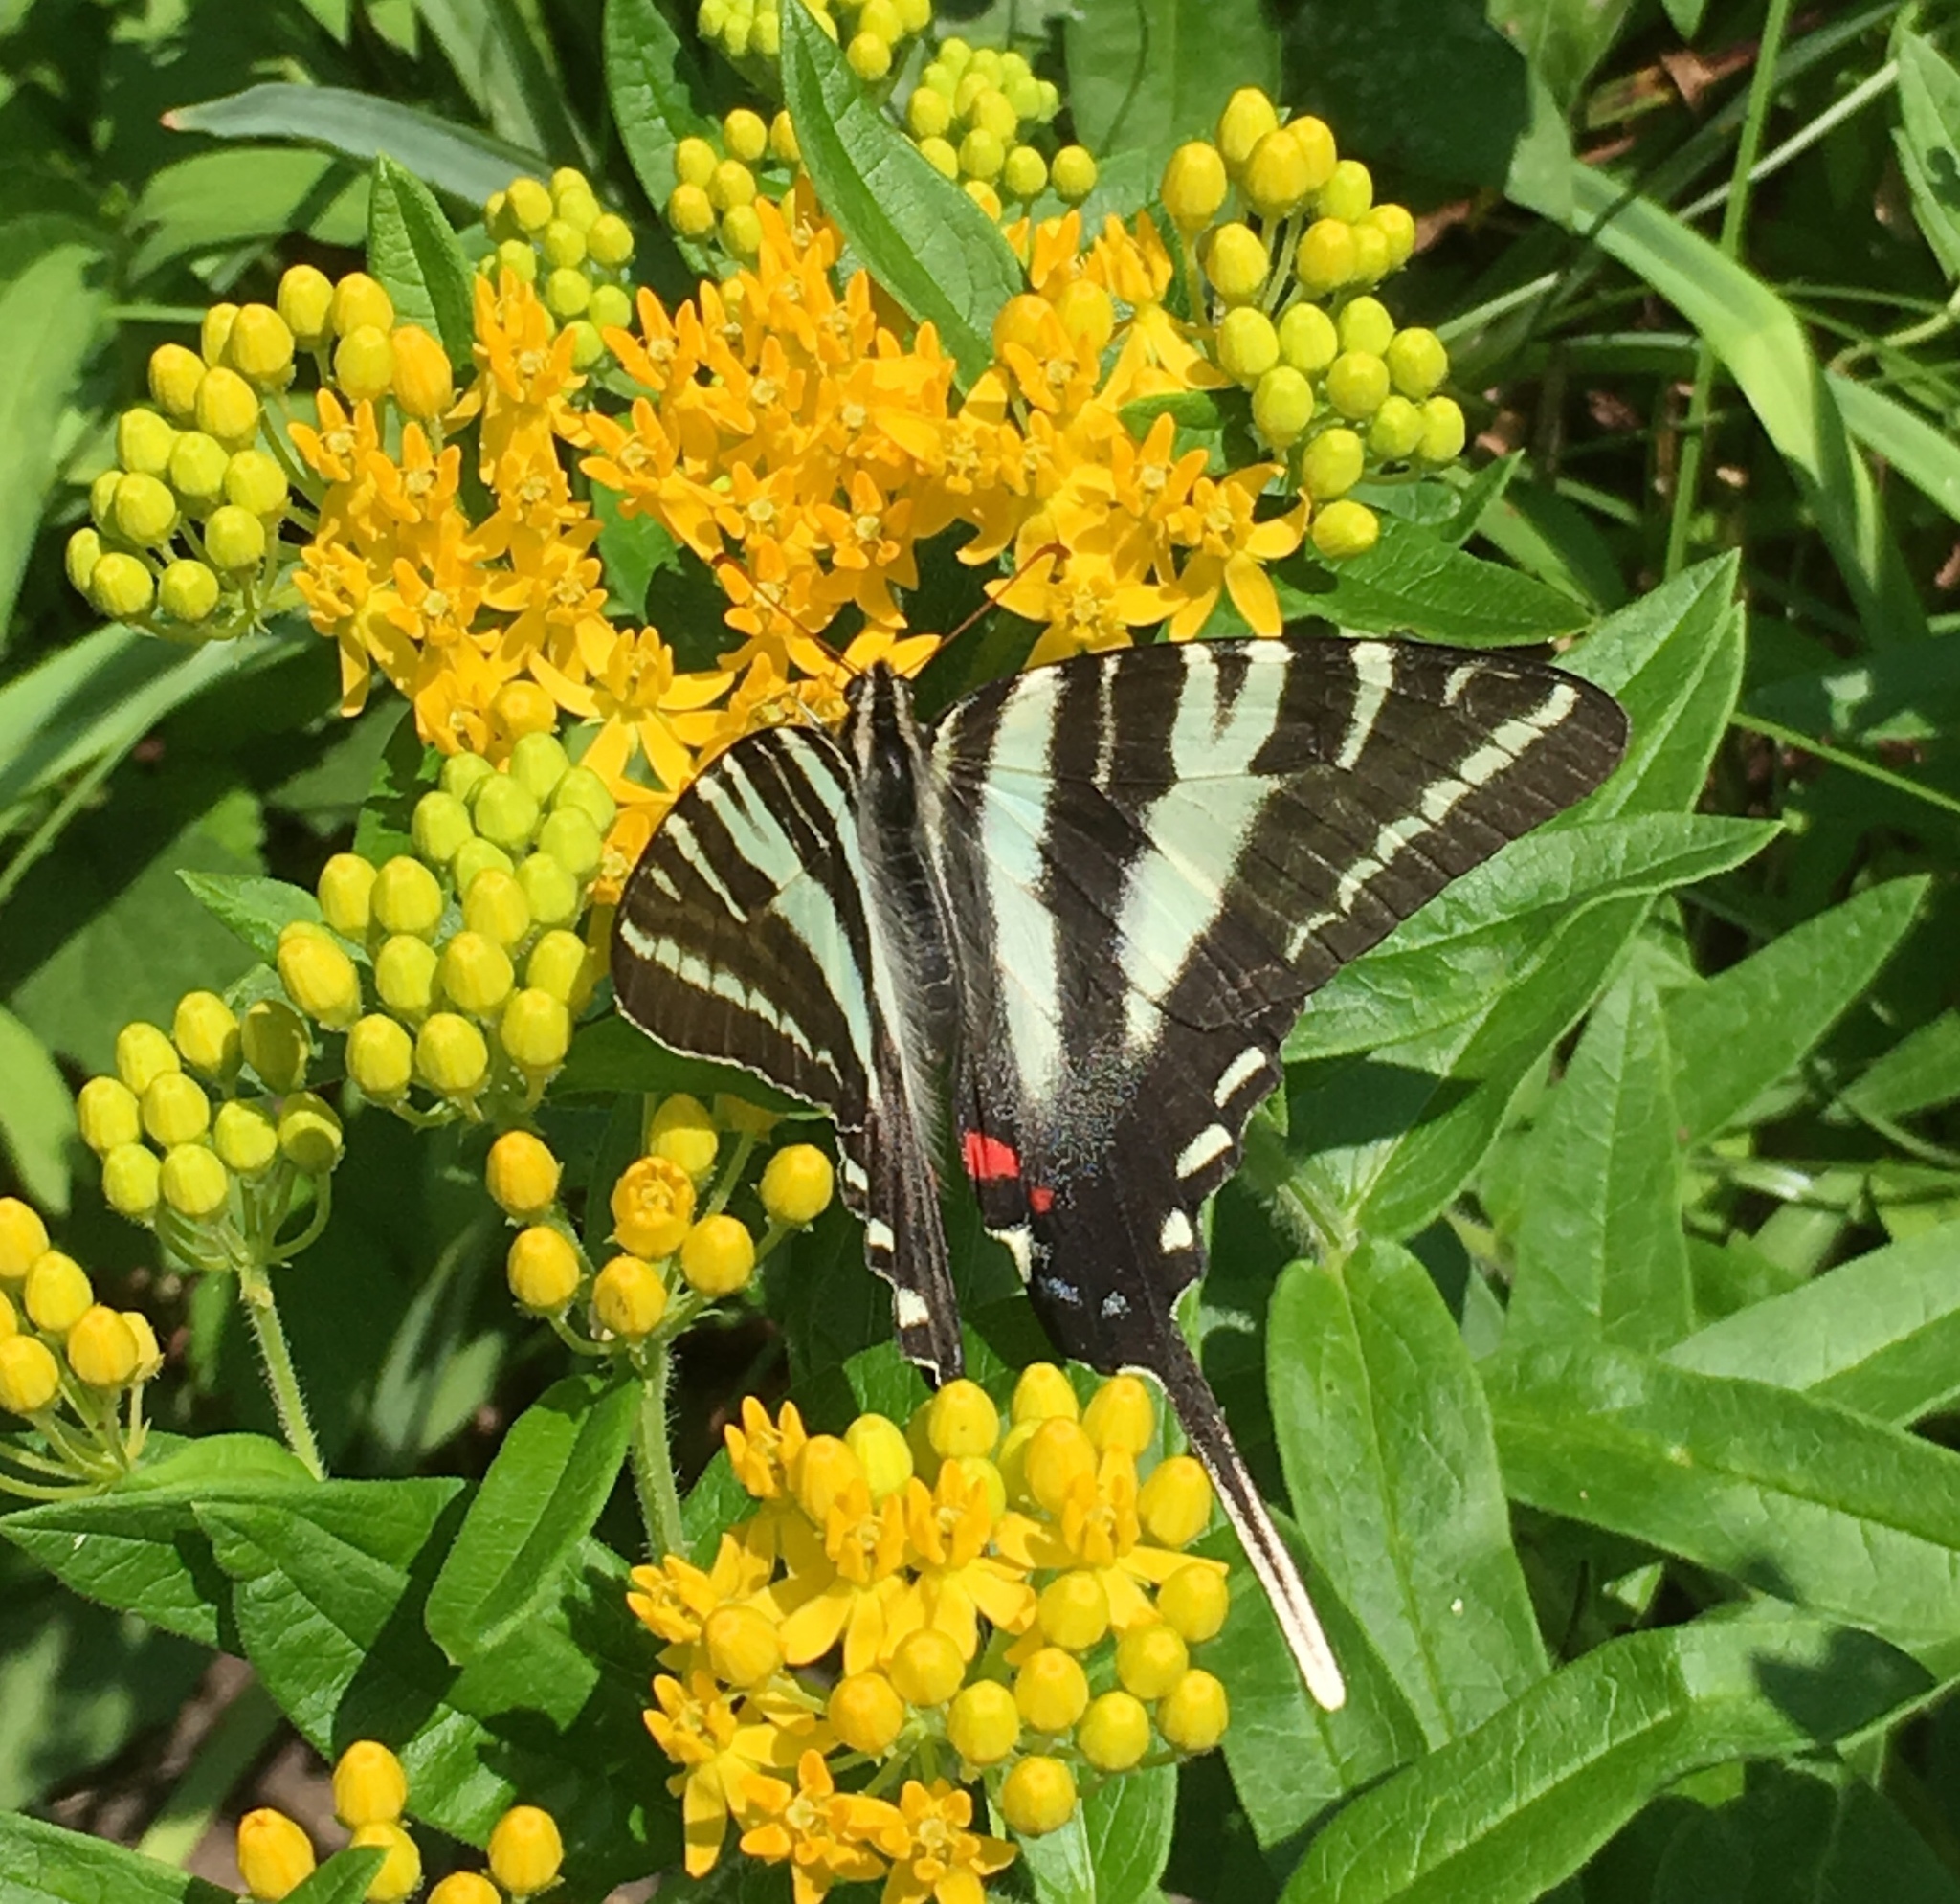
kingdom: Animalia
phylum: Arthropoda
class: Insecta
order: Lepidoptera
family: Papilionidae
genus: Protographium
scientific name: Protographium marcellus
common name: Zebra swallowtail
